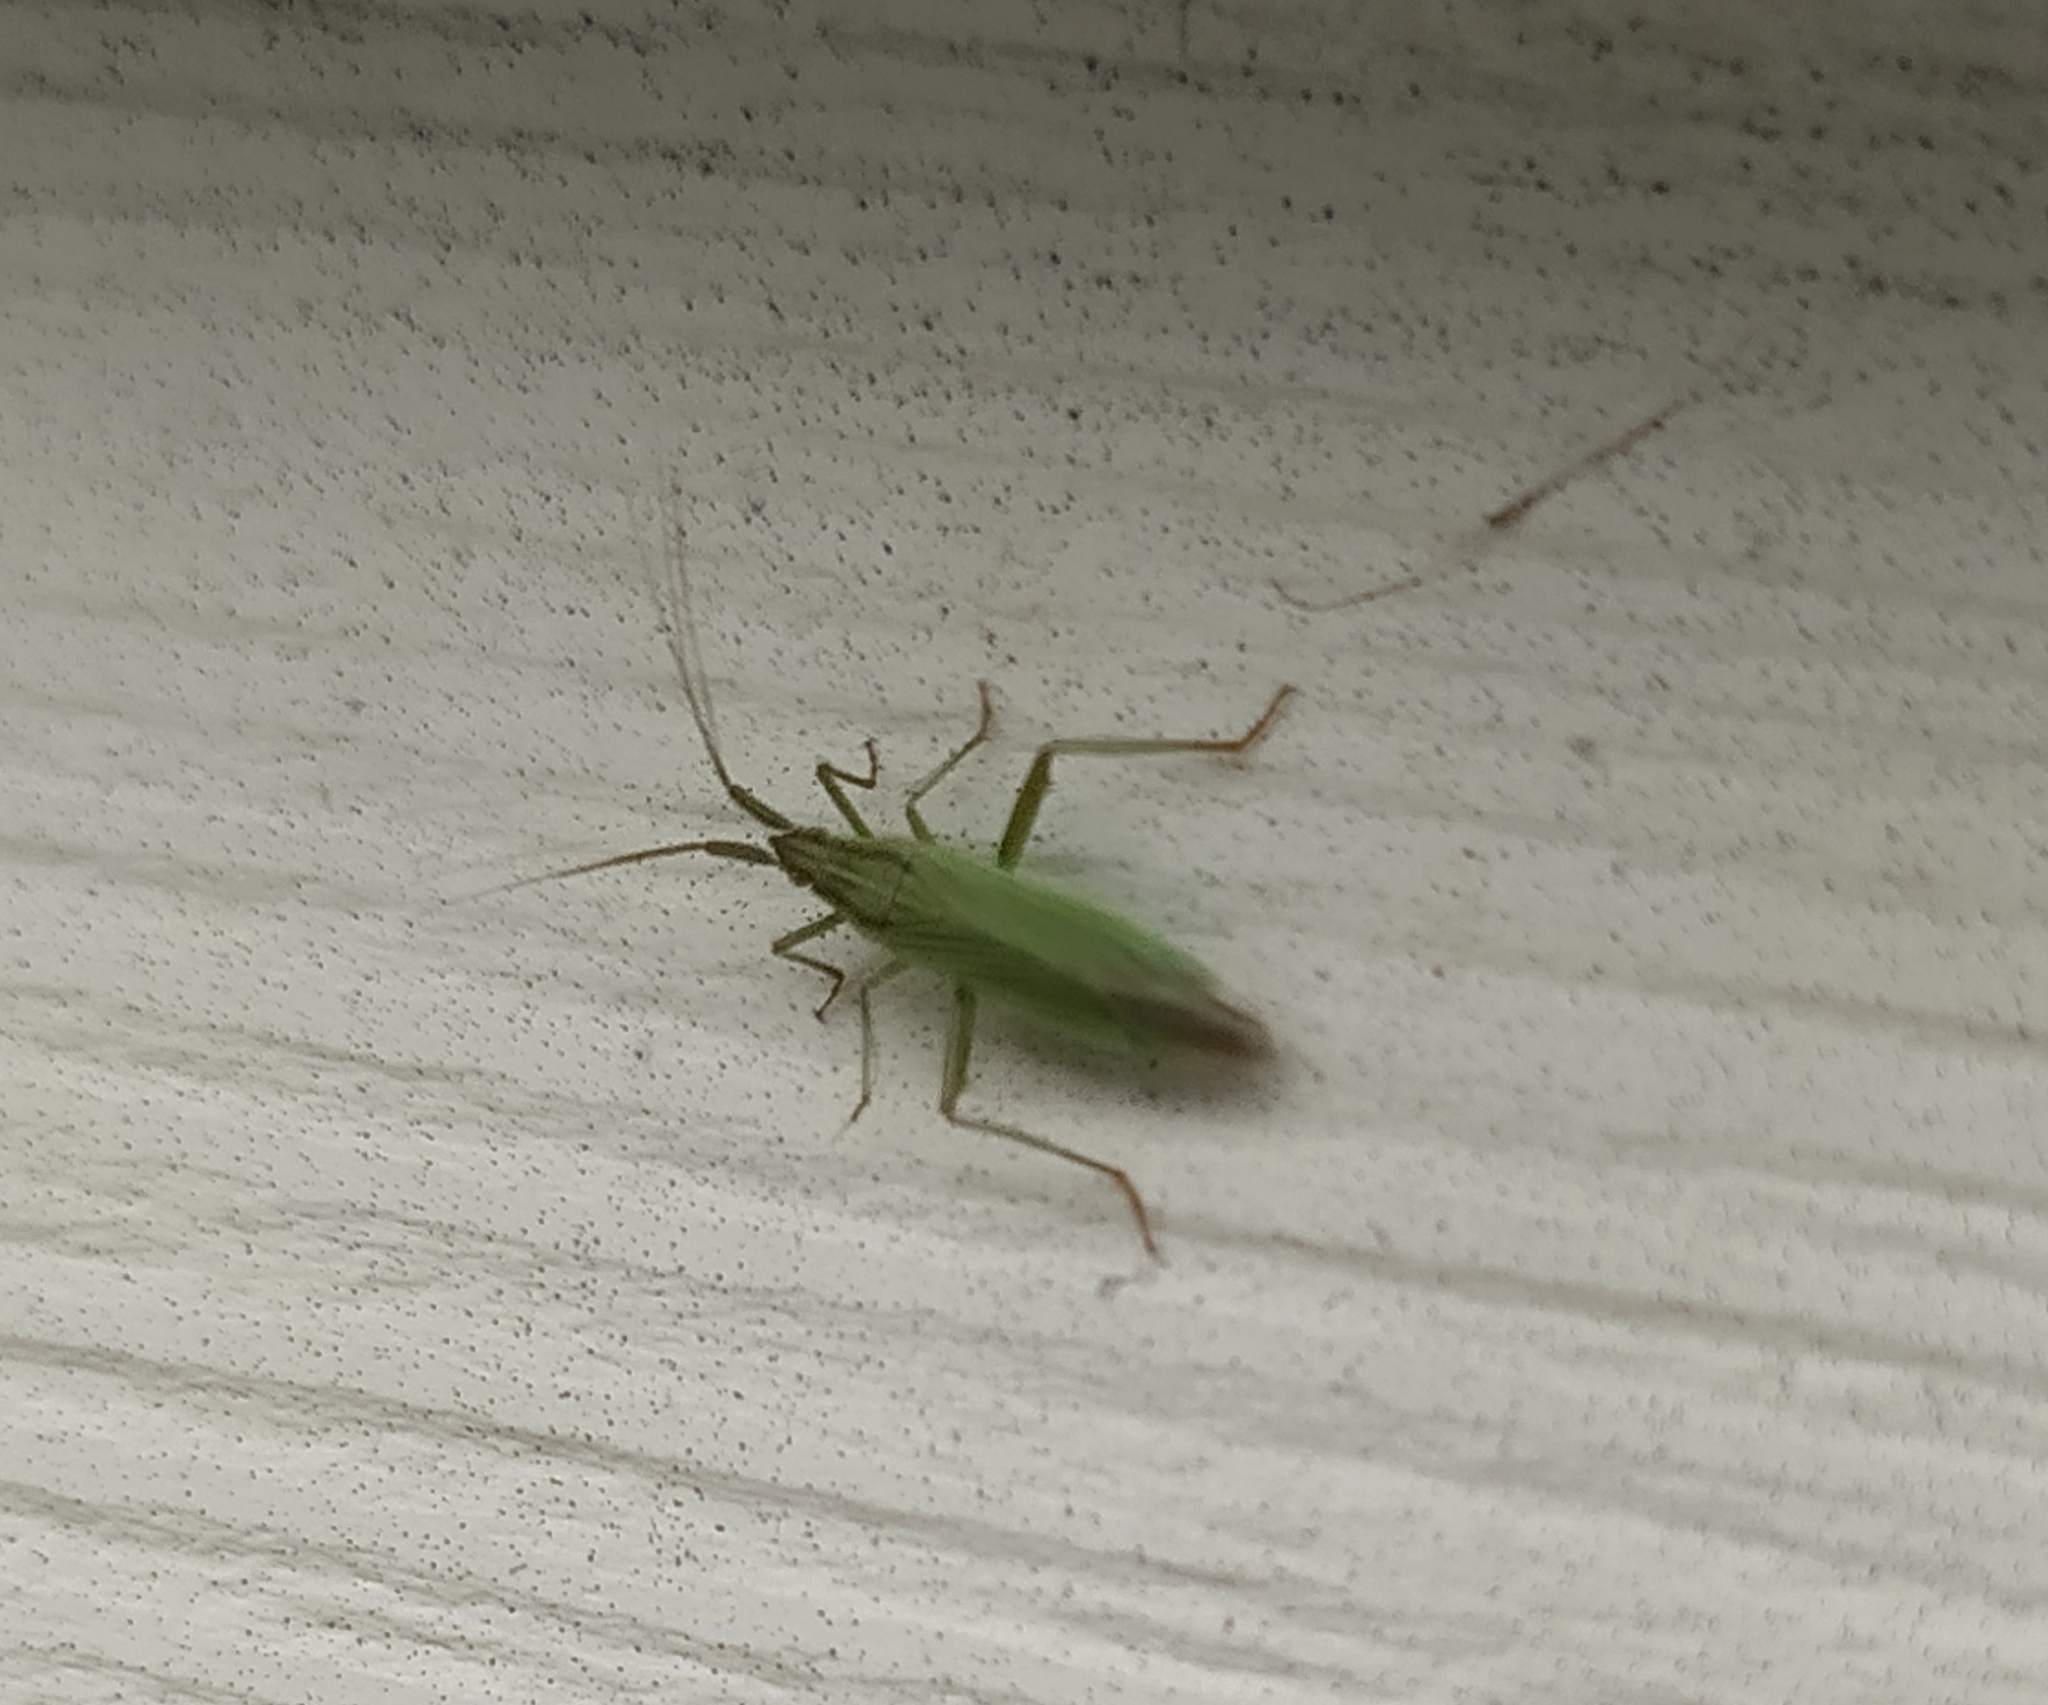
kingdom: Animalia
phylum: Arthropoda
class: Insecta
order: Hemiptera
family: Miridae
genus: Stenodema
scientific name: Stenodema calcarata
